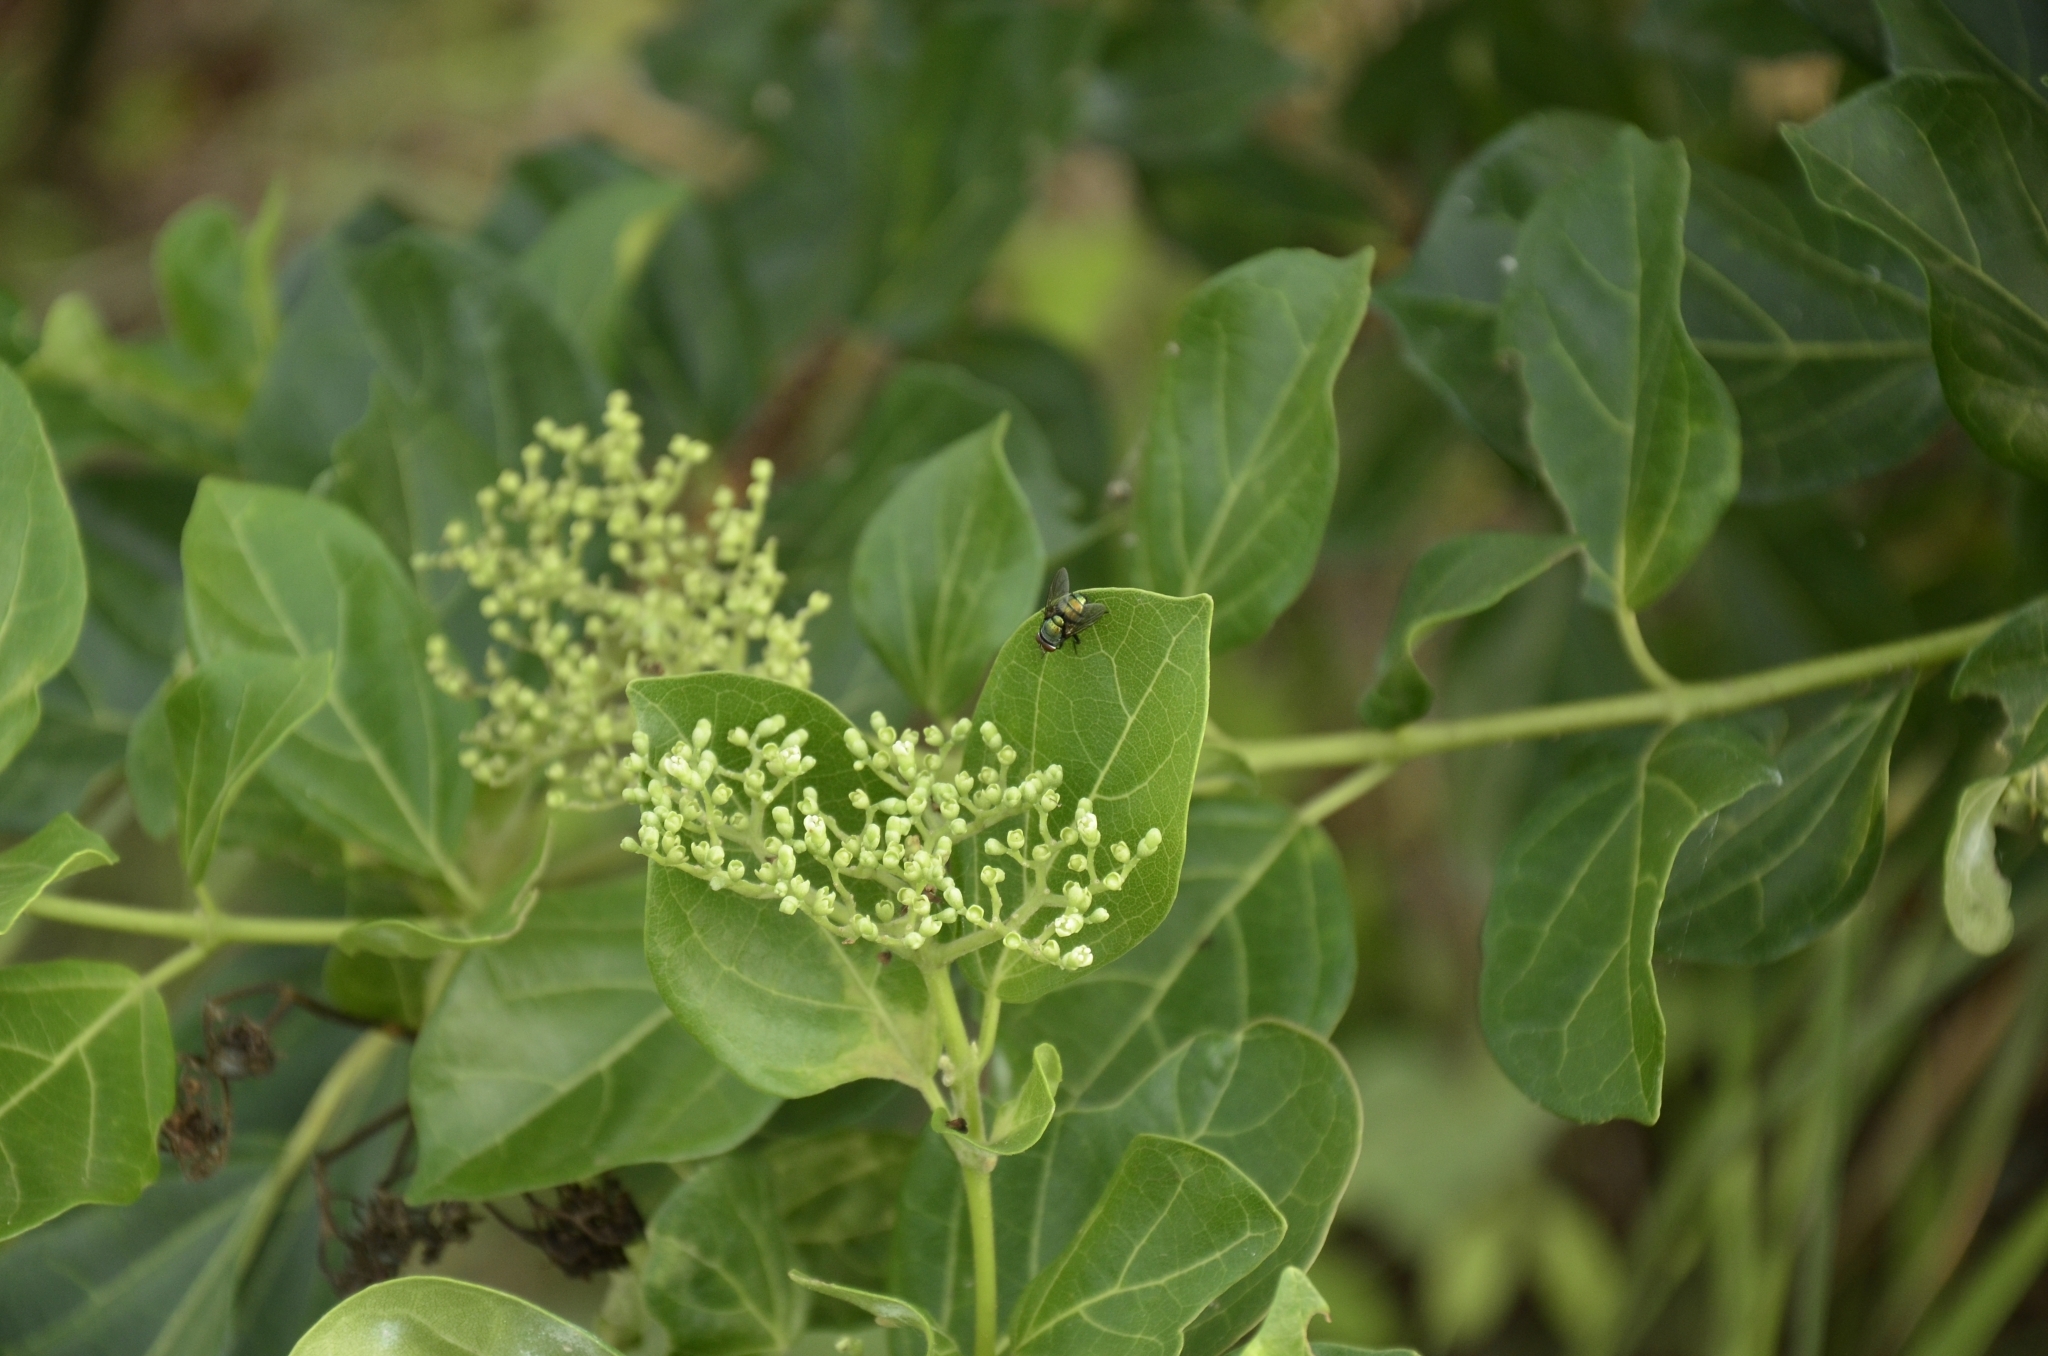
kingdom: Plantae
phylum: Tracheophyta
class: Magnoliopsida
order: Lamiales
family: Lamiaceae
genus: Premna
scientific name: Premna serratifolia
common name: Bastard guelder
